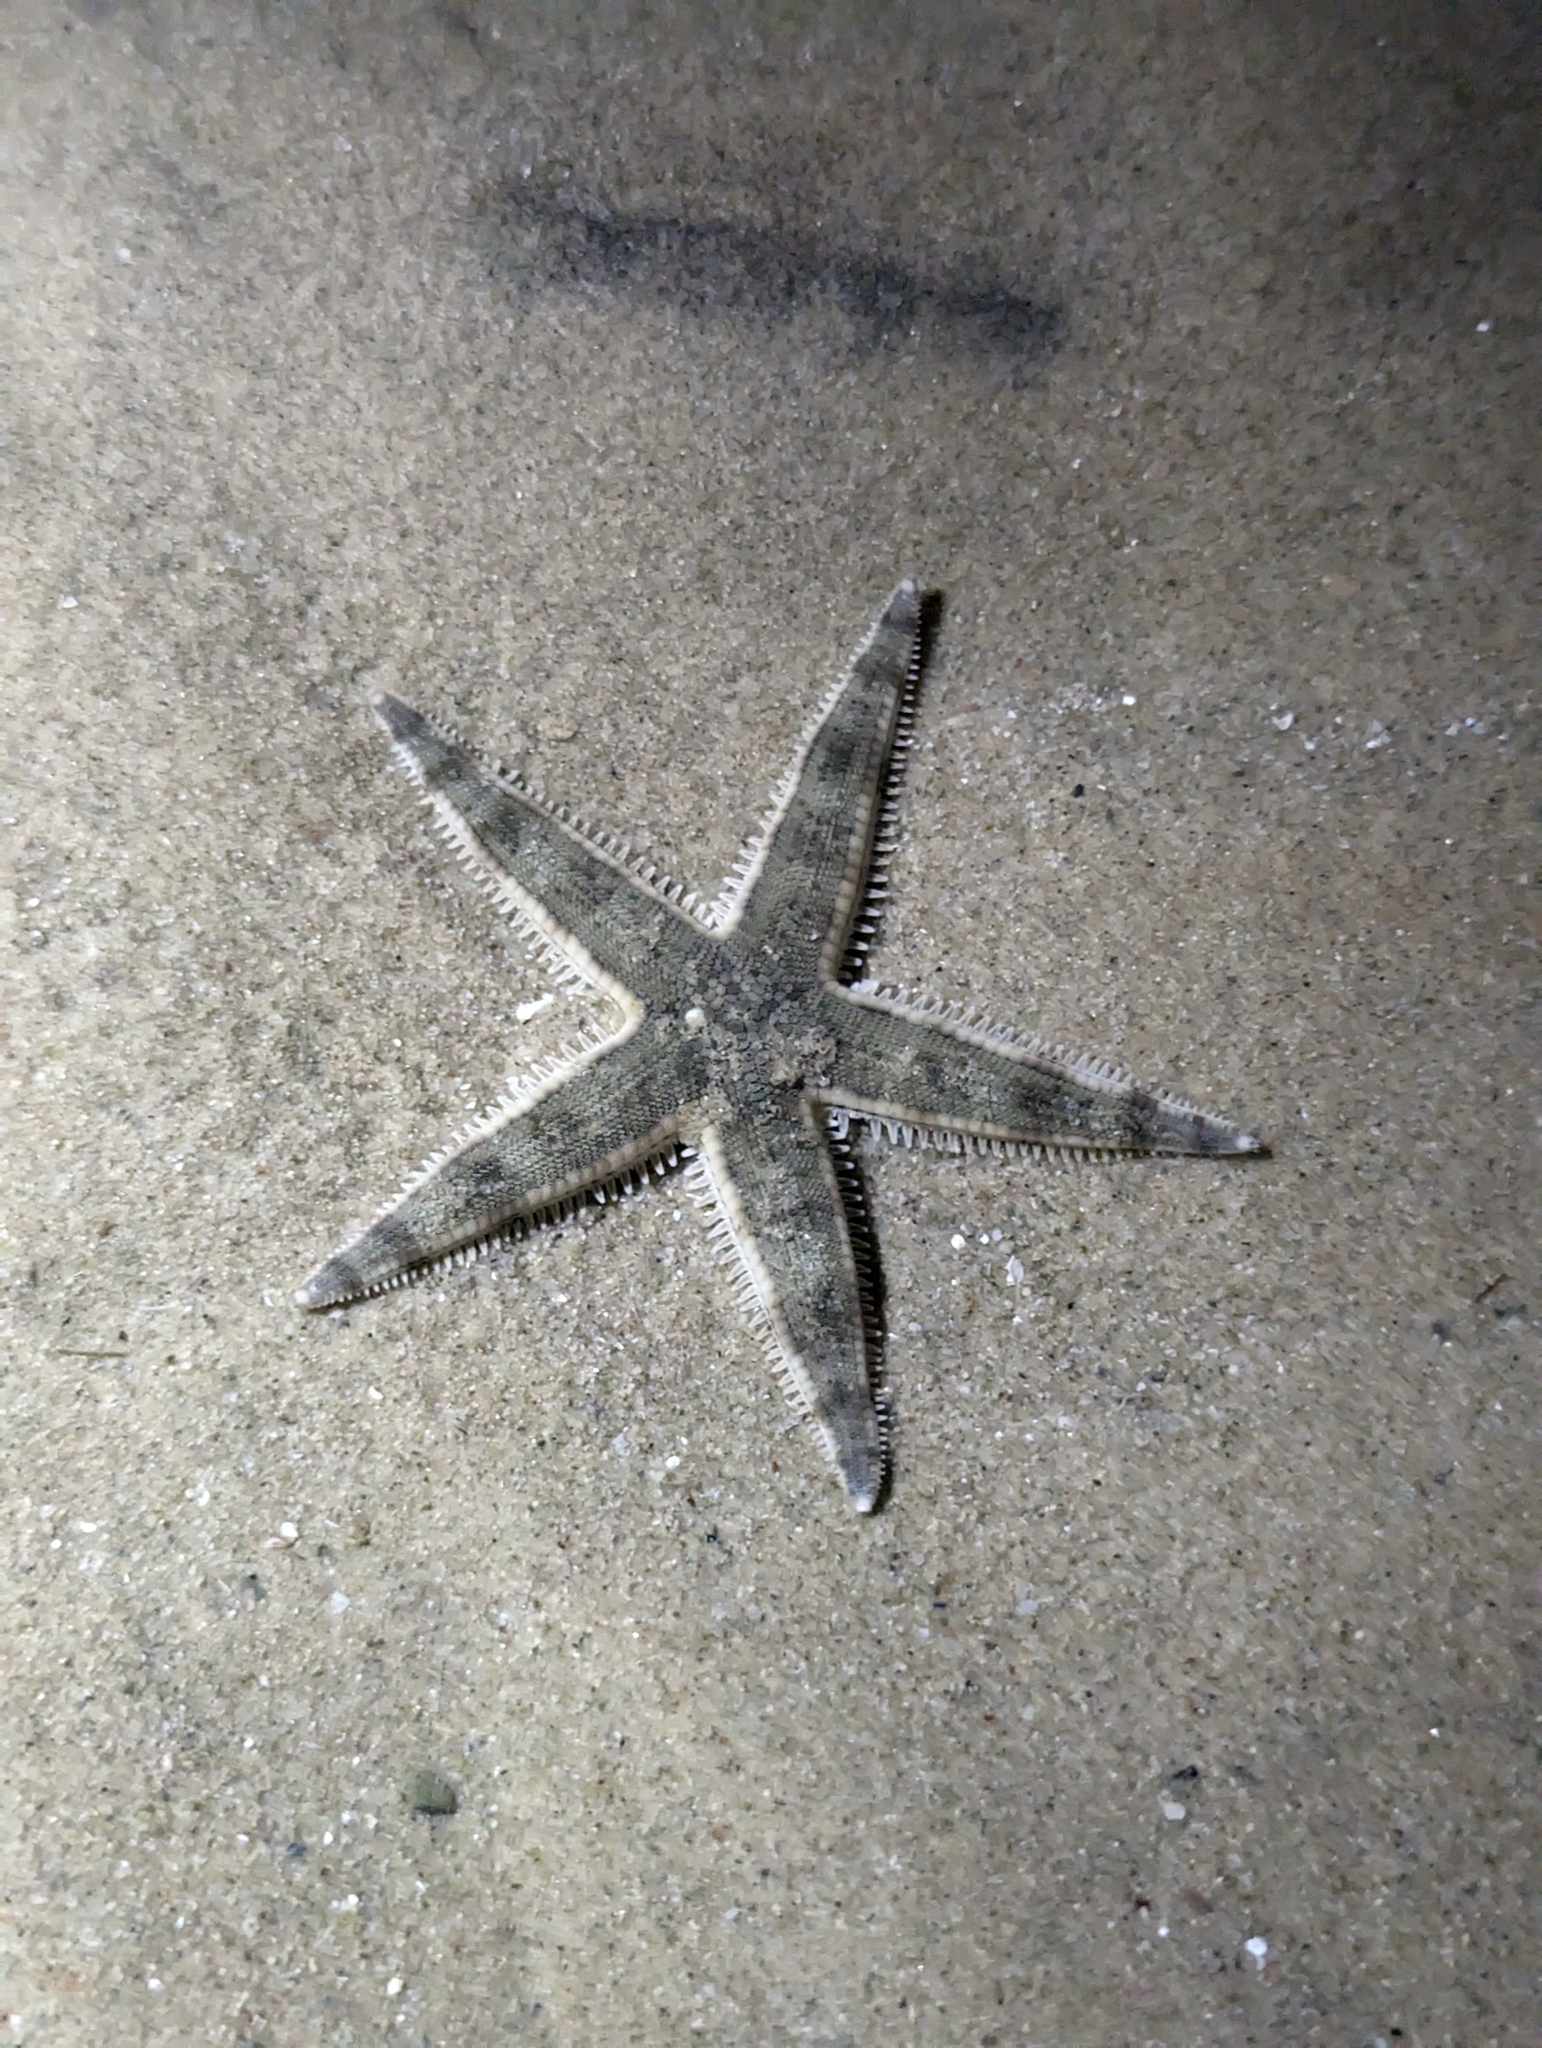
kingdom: Animalia
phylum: Echinodermata
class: Asteroidea
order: Valvatida
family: Archasteridae
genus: Archaster
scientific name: Archaster typicus
